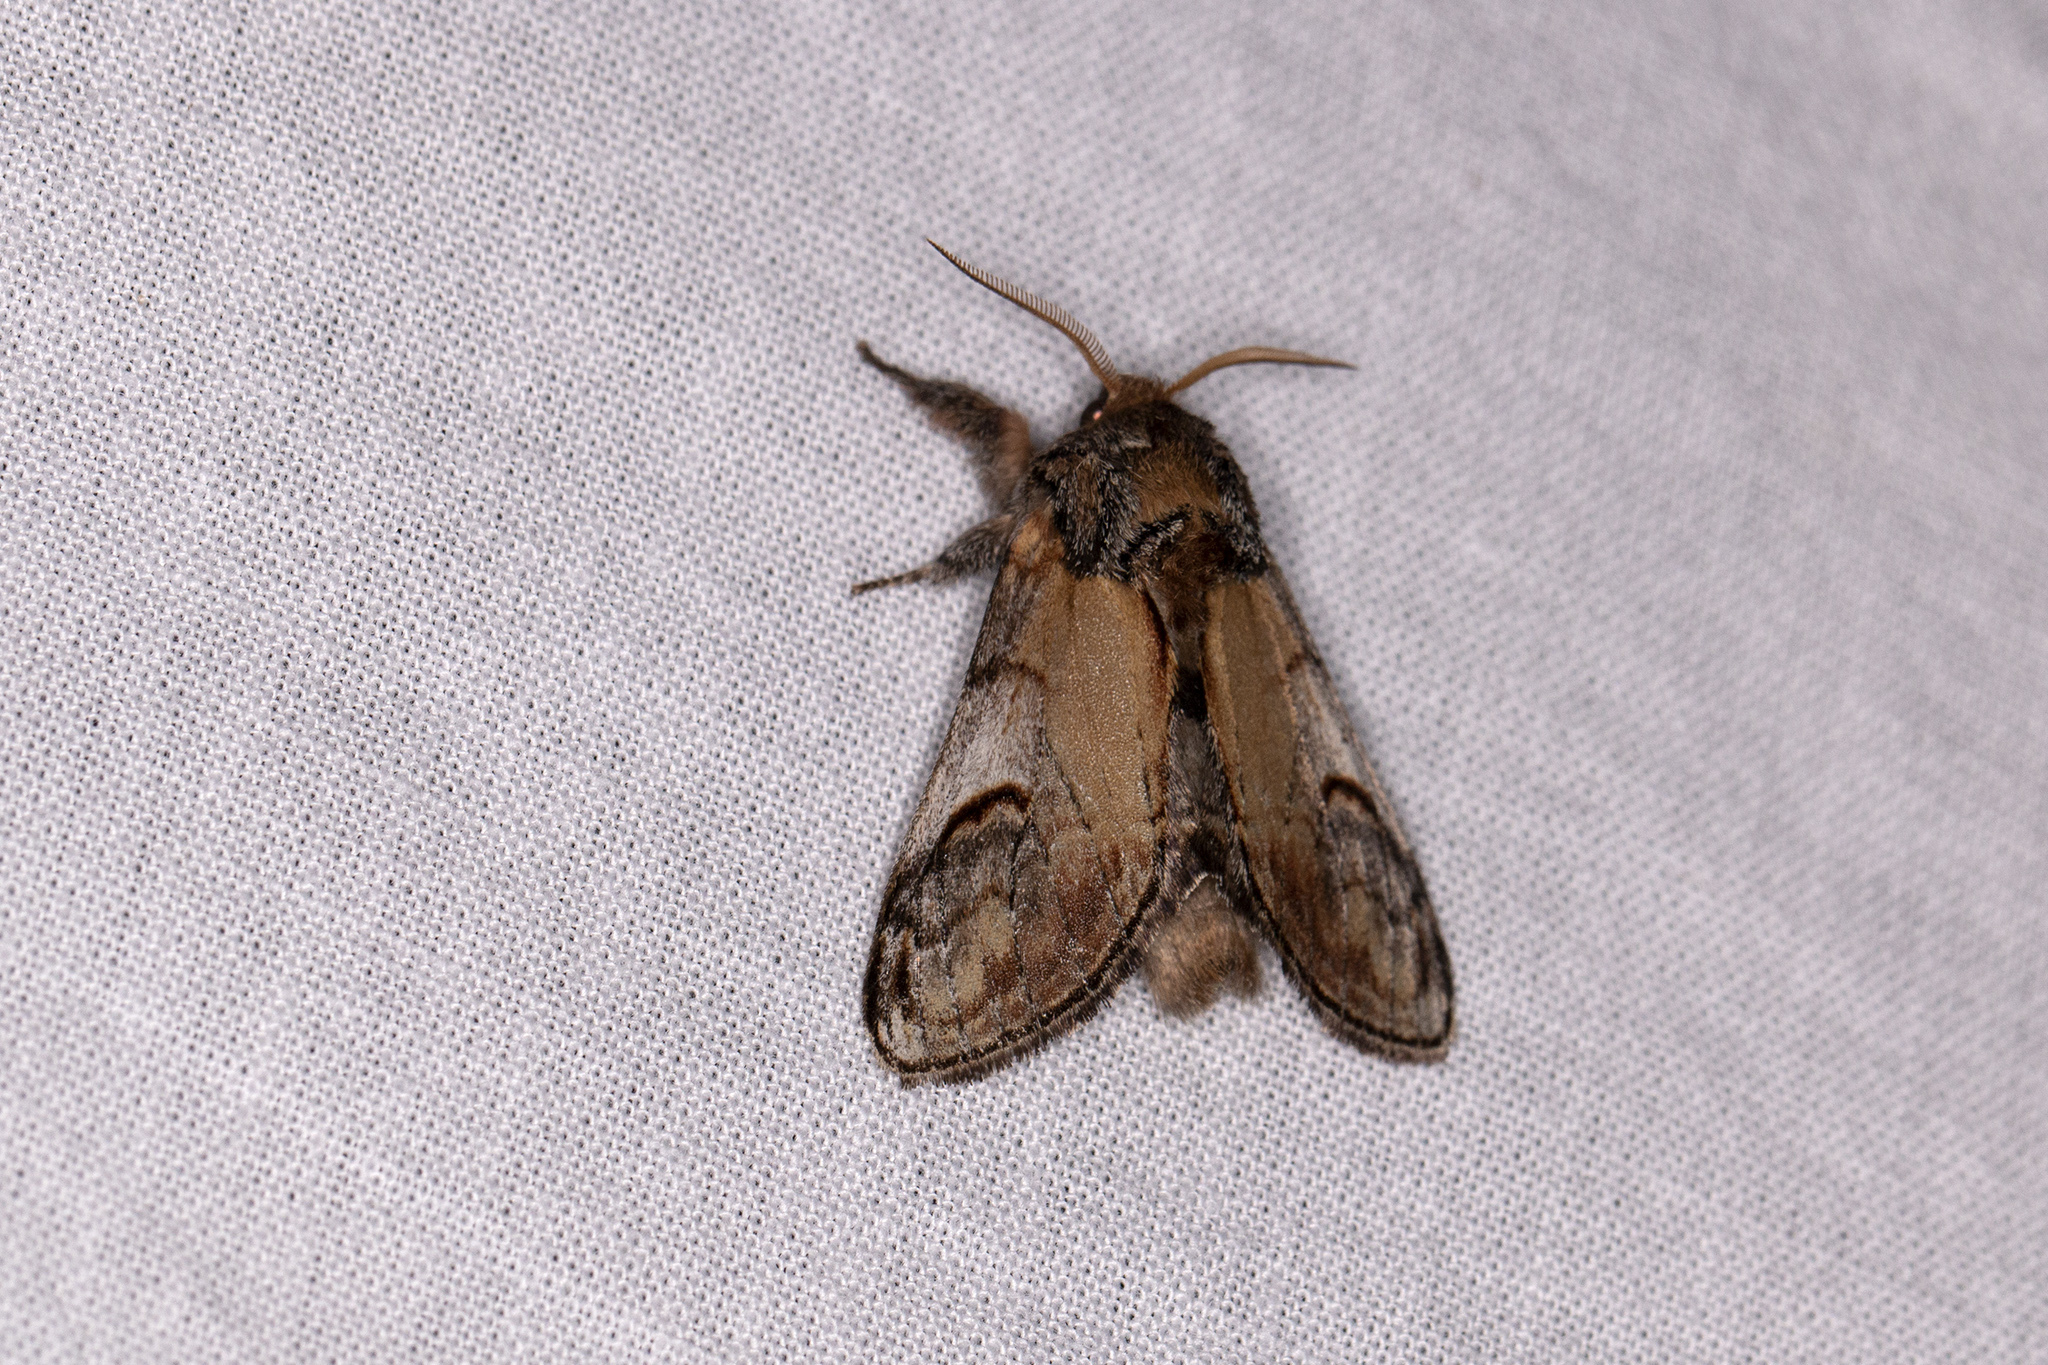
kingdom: Animalia
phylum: Arthropoda
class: Insecta
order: Lepidoptera
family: Notodontidae
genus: Notodonta
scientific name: Notodonta ziczac
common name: Pebble prominent
